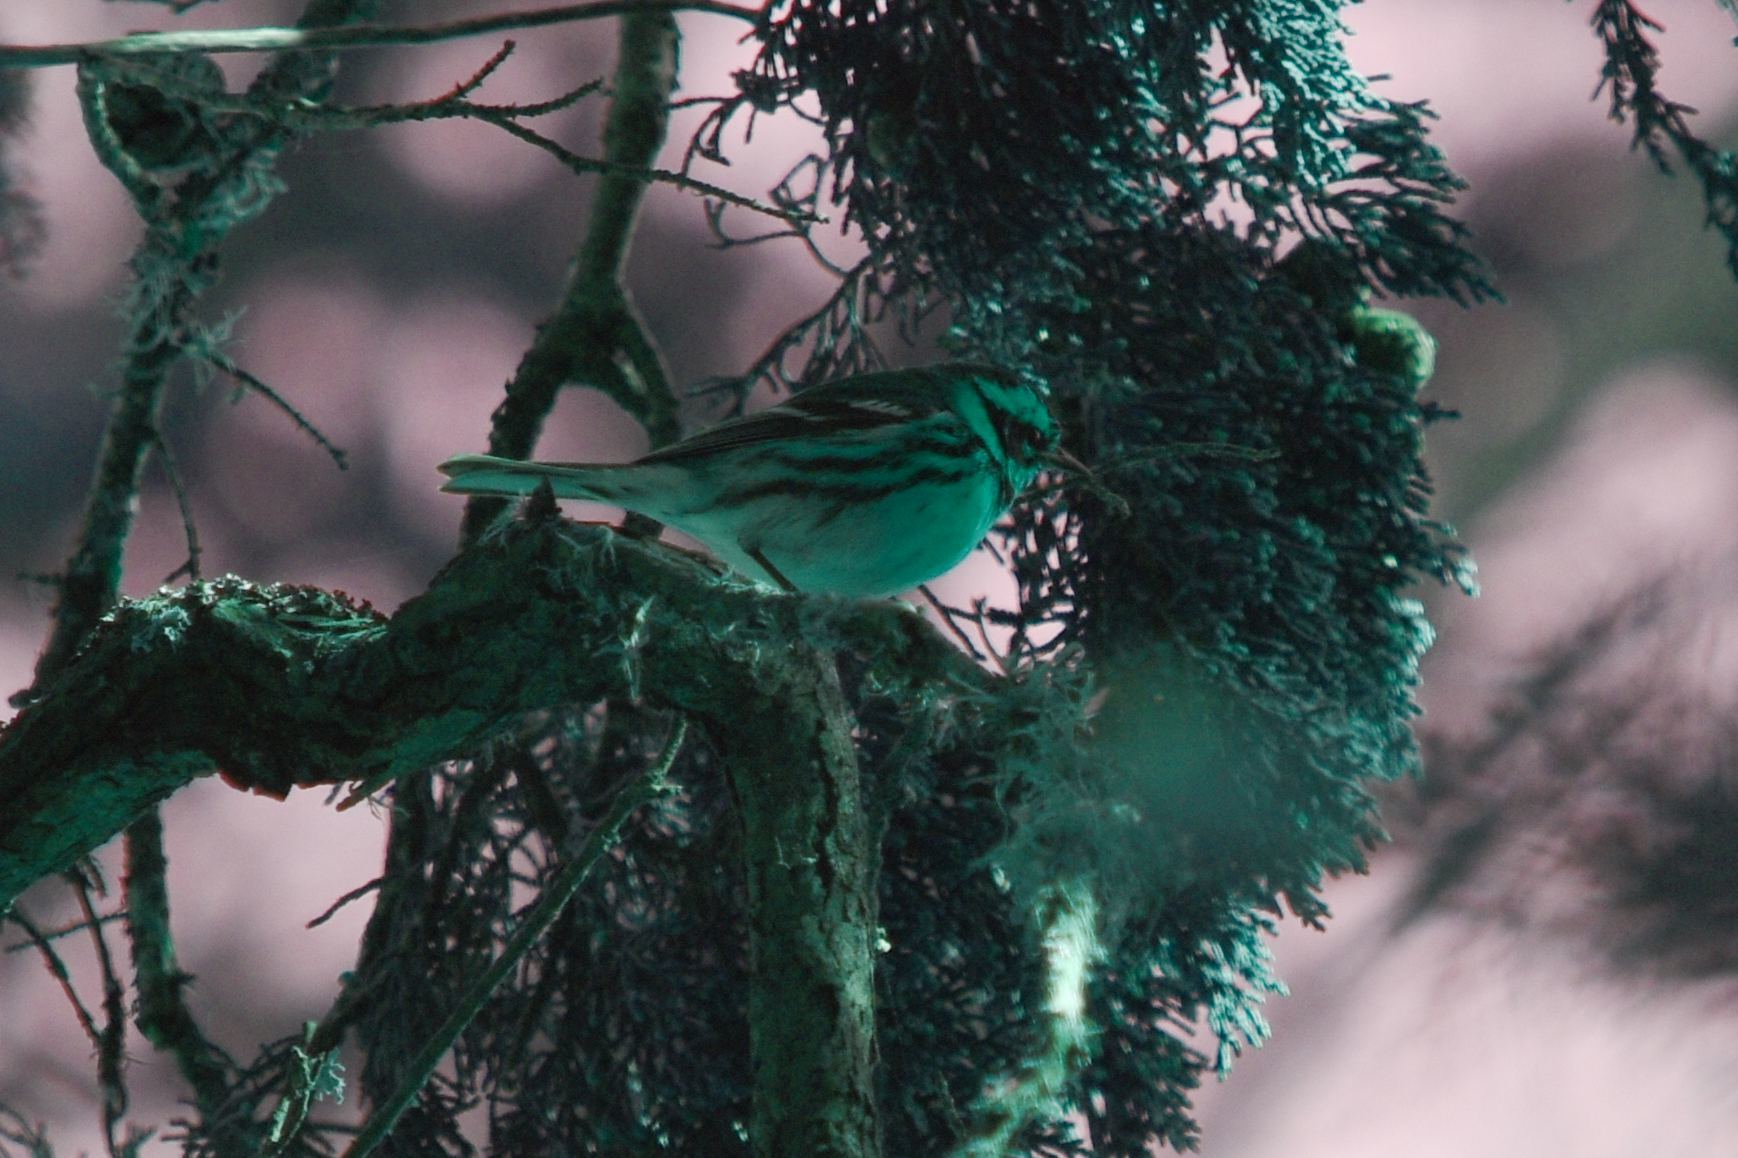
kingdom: Animalia
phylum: Chordata
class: Aves
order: Passeriformes
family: Parulidae
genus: Setophaga
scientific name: Setophaga townsendi
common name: Townsend's warbler
